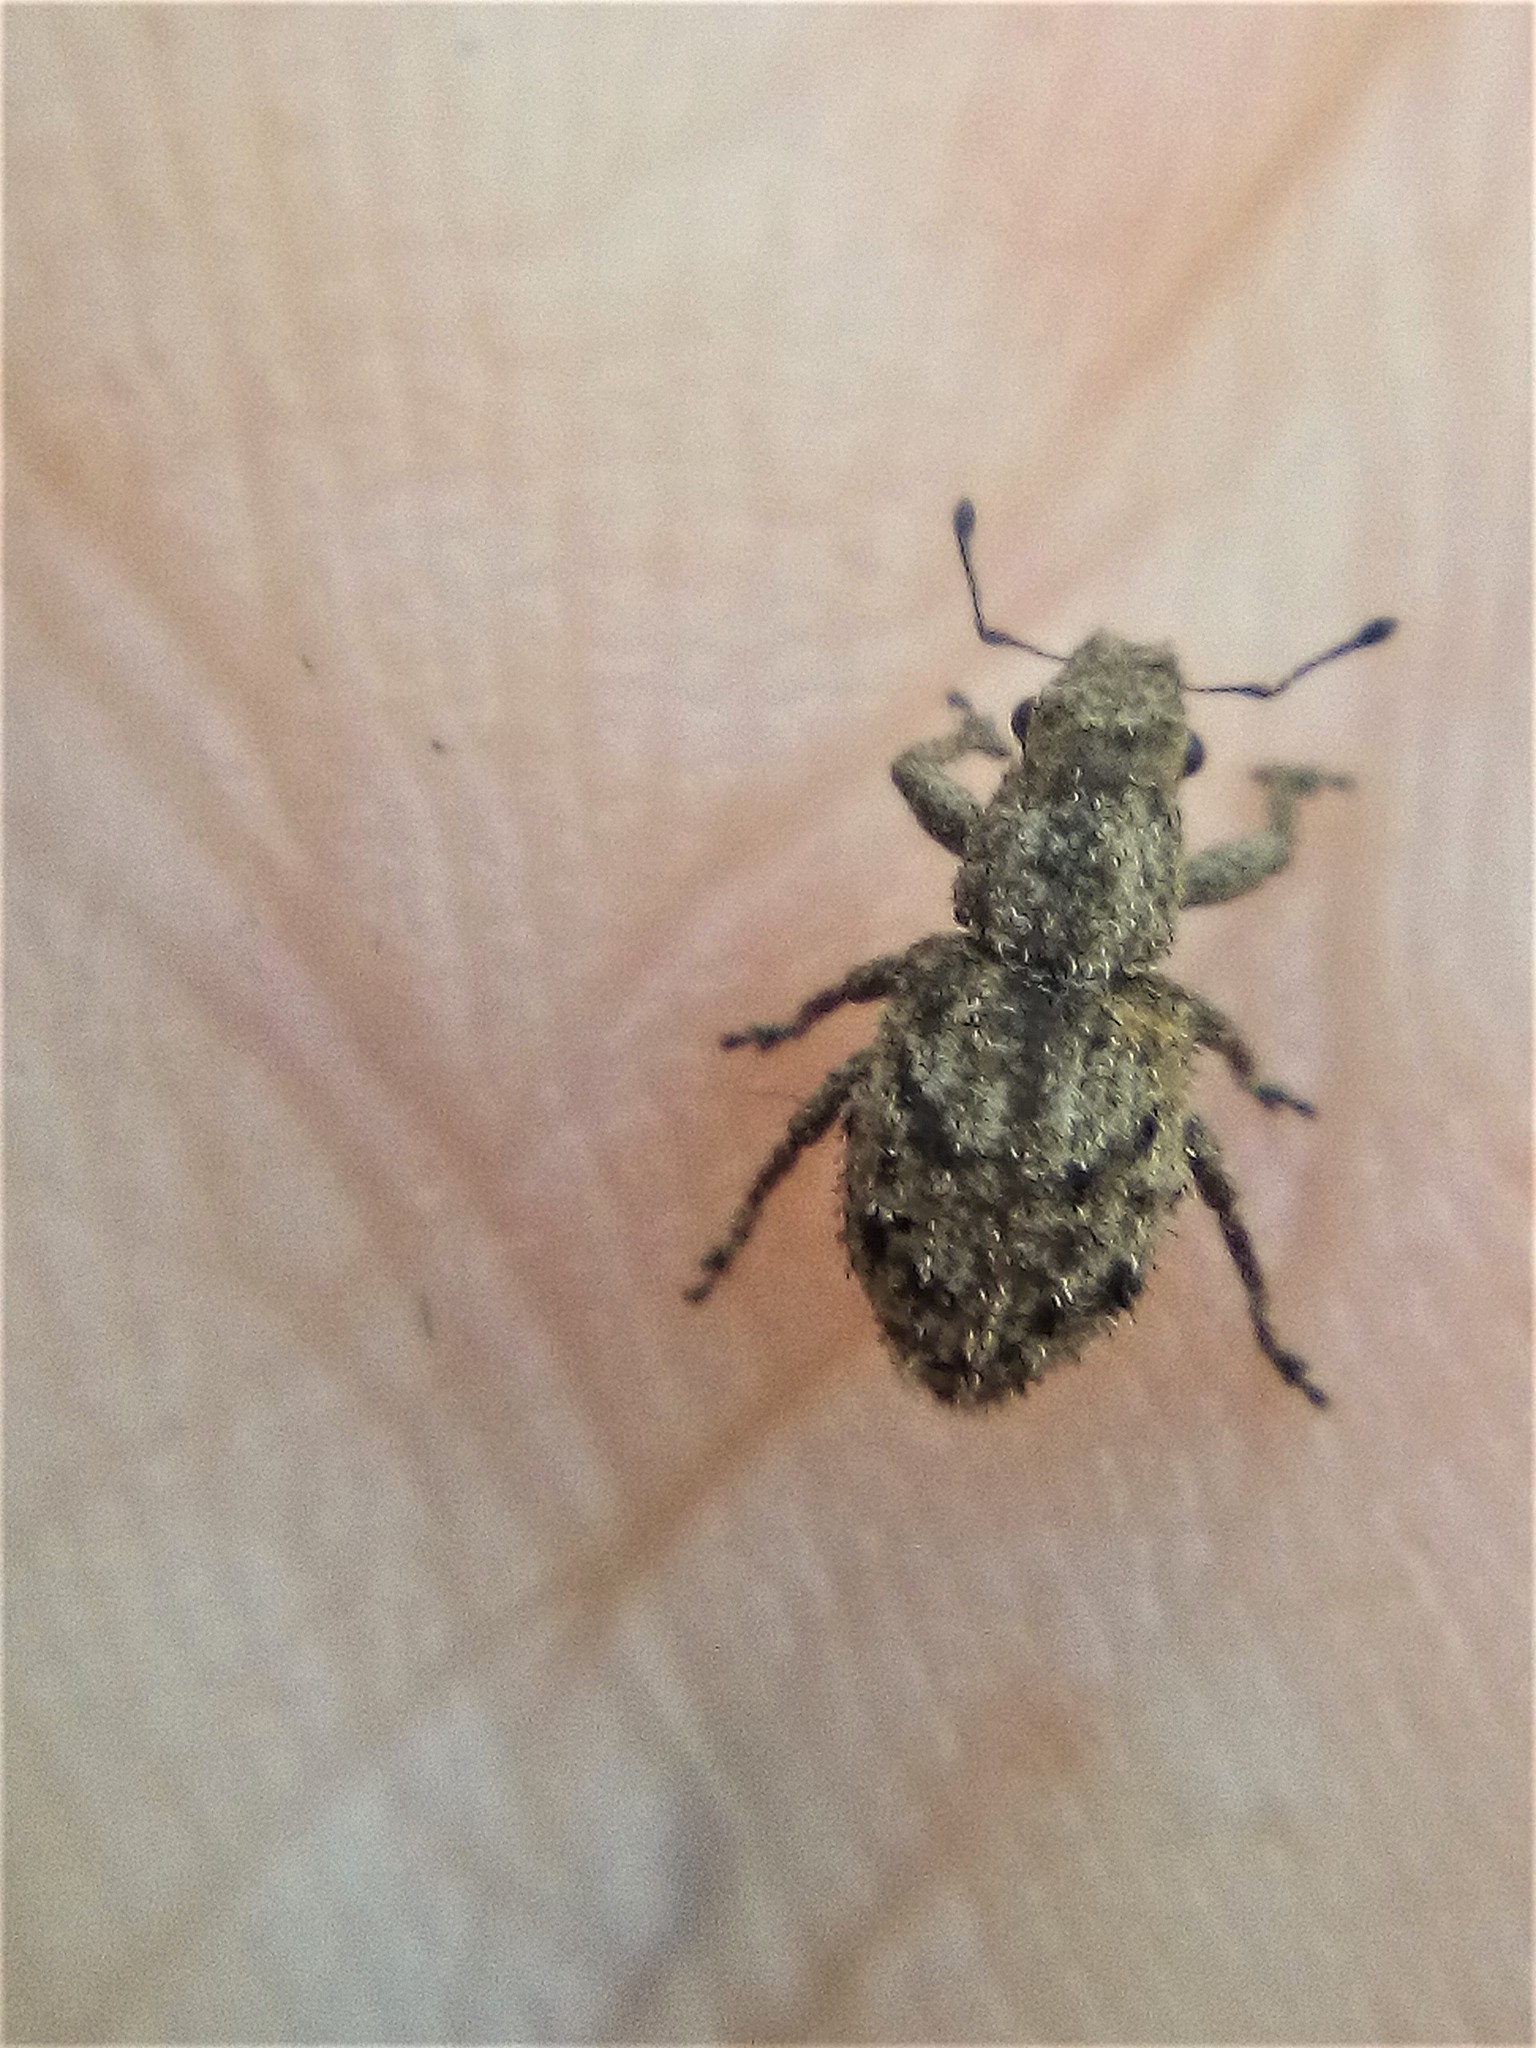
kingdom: Animalia
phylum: Arthropoda
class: Insecta
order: Coleoptera
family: Curculionidae
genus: Floresianus
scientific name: Floresianus sordidus
